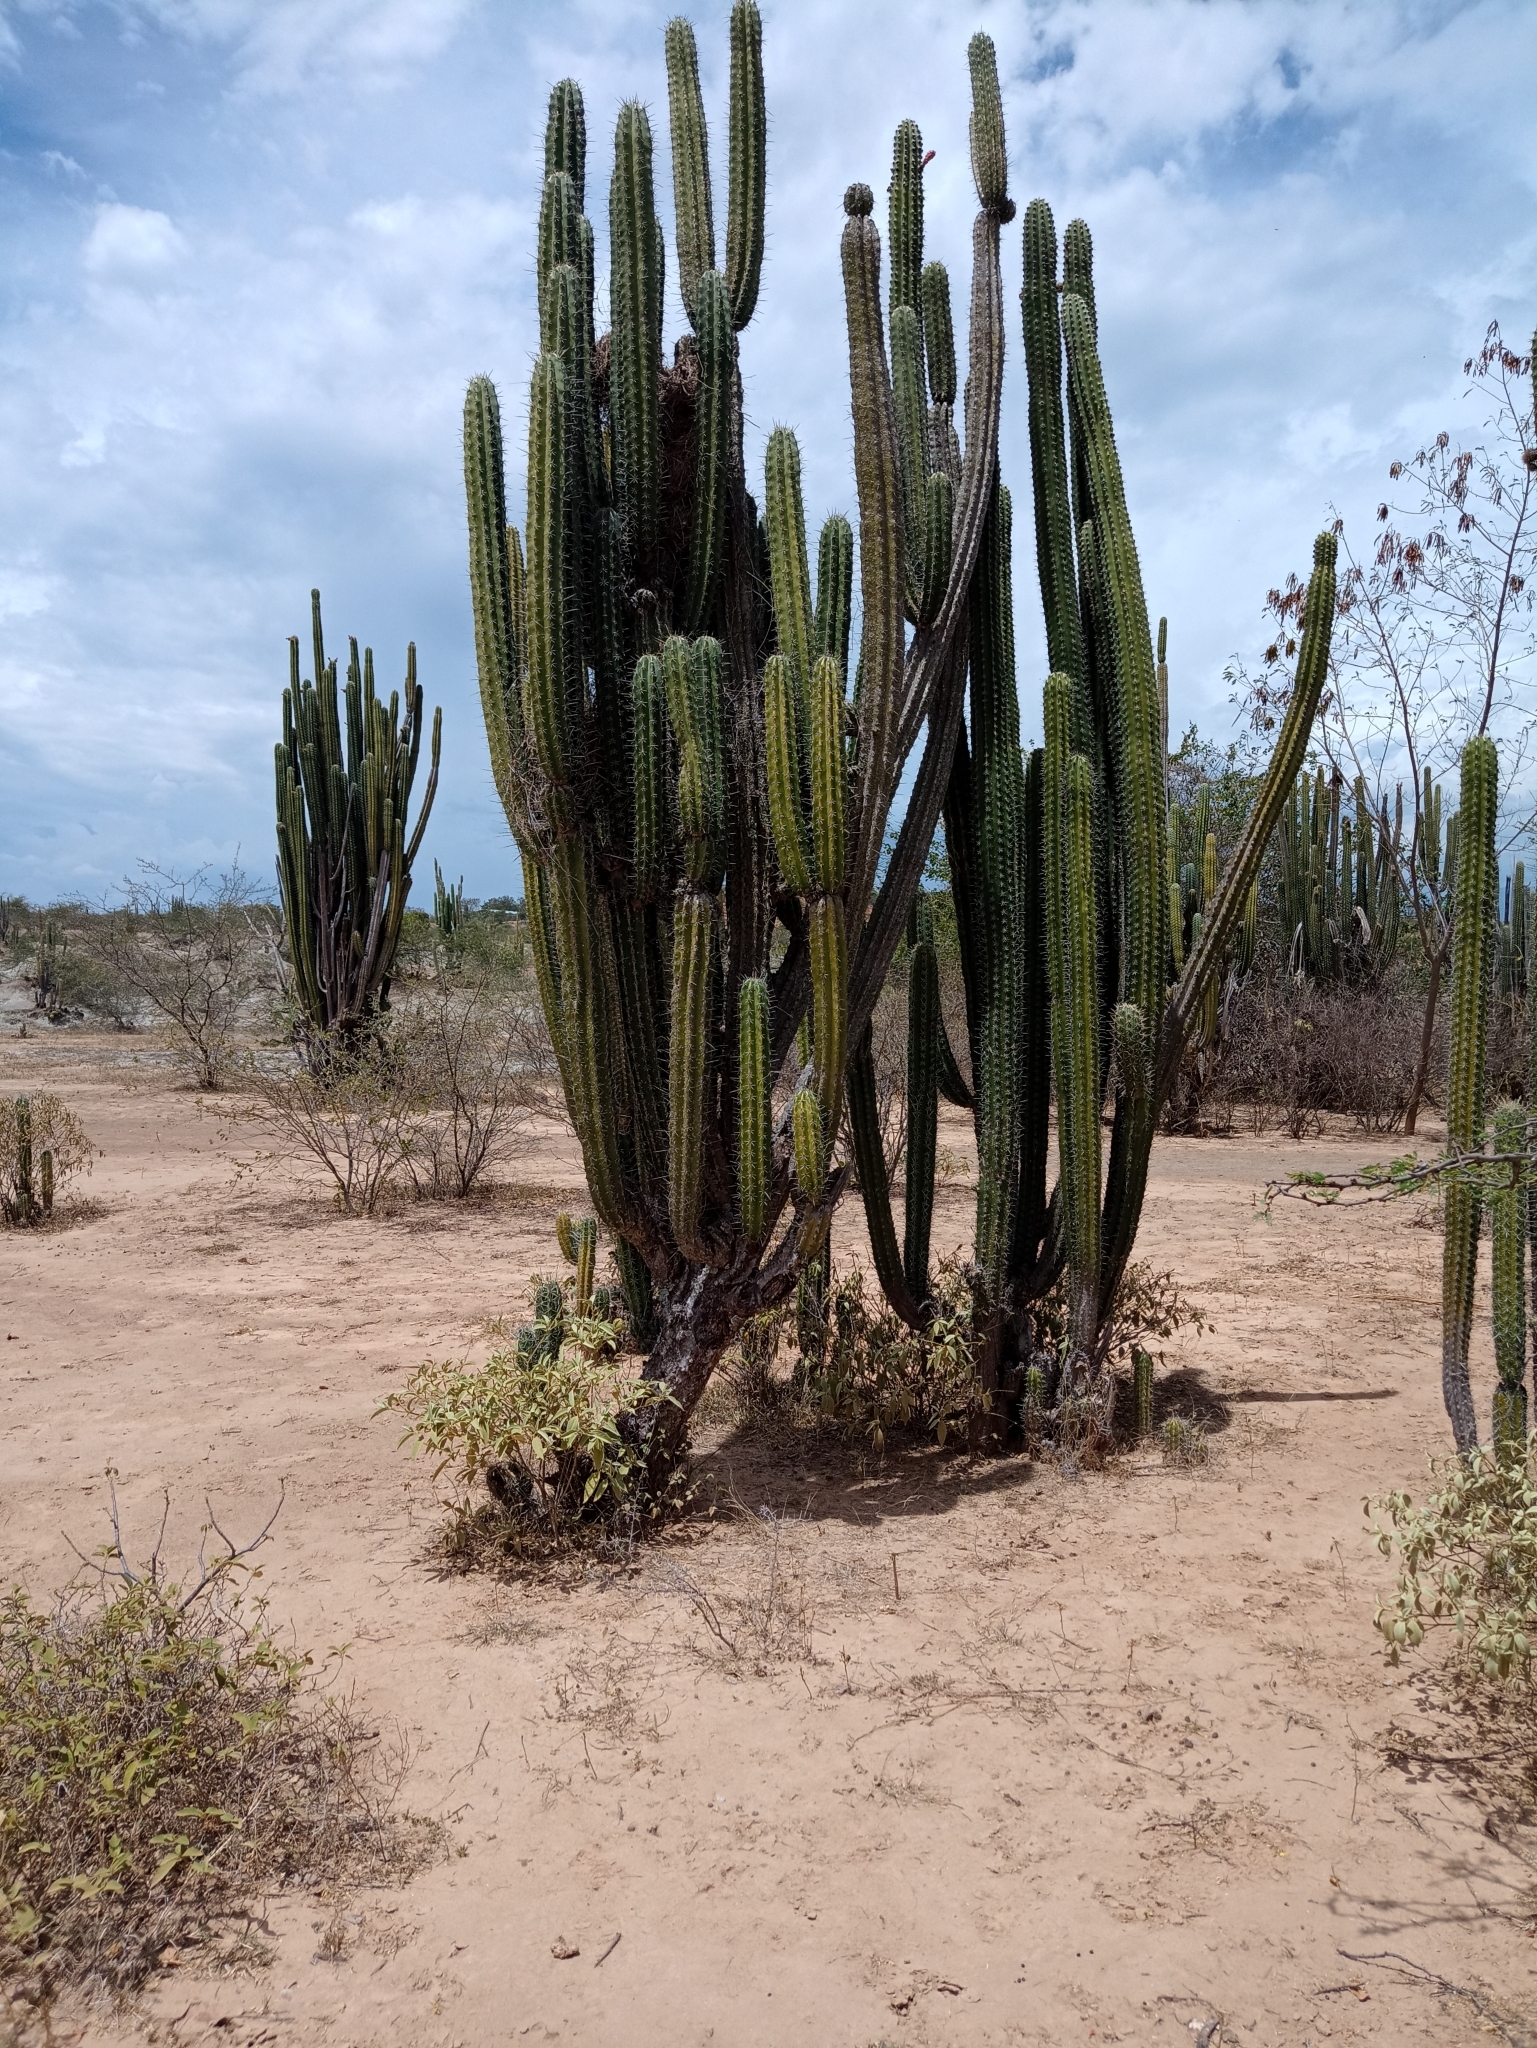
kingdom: Plantae
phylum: Tracheophyta
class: Magnoliopsida
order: Caryophyllales
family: Cactaceae
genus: Stenocereus
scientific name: Stenocereus griseus
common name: Tall candelabra cactus
